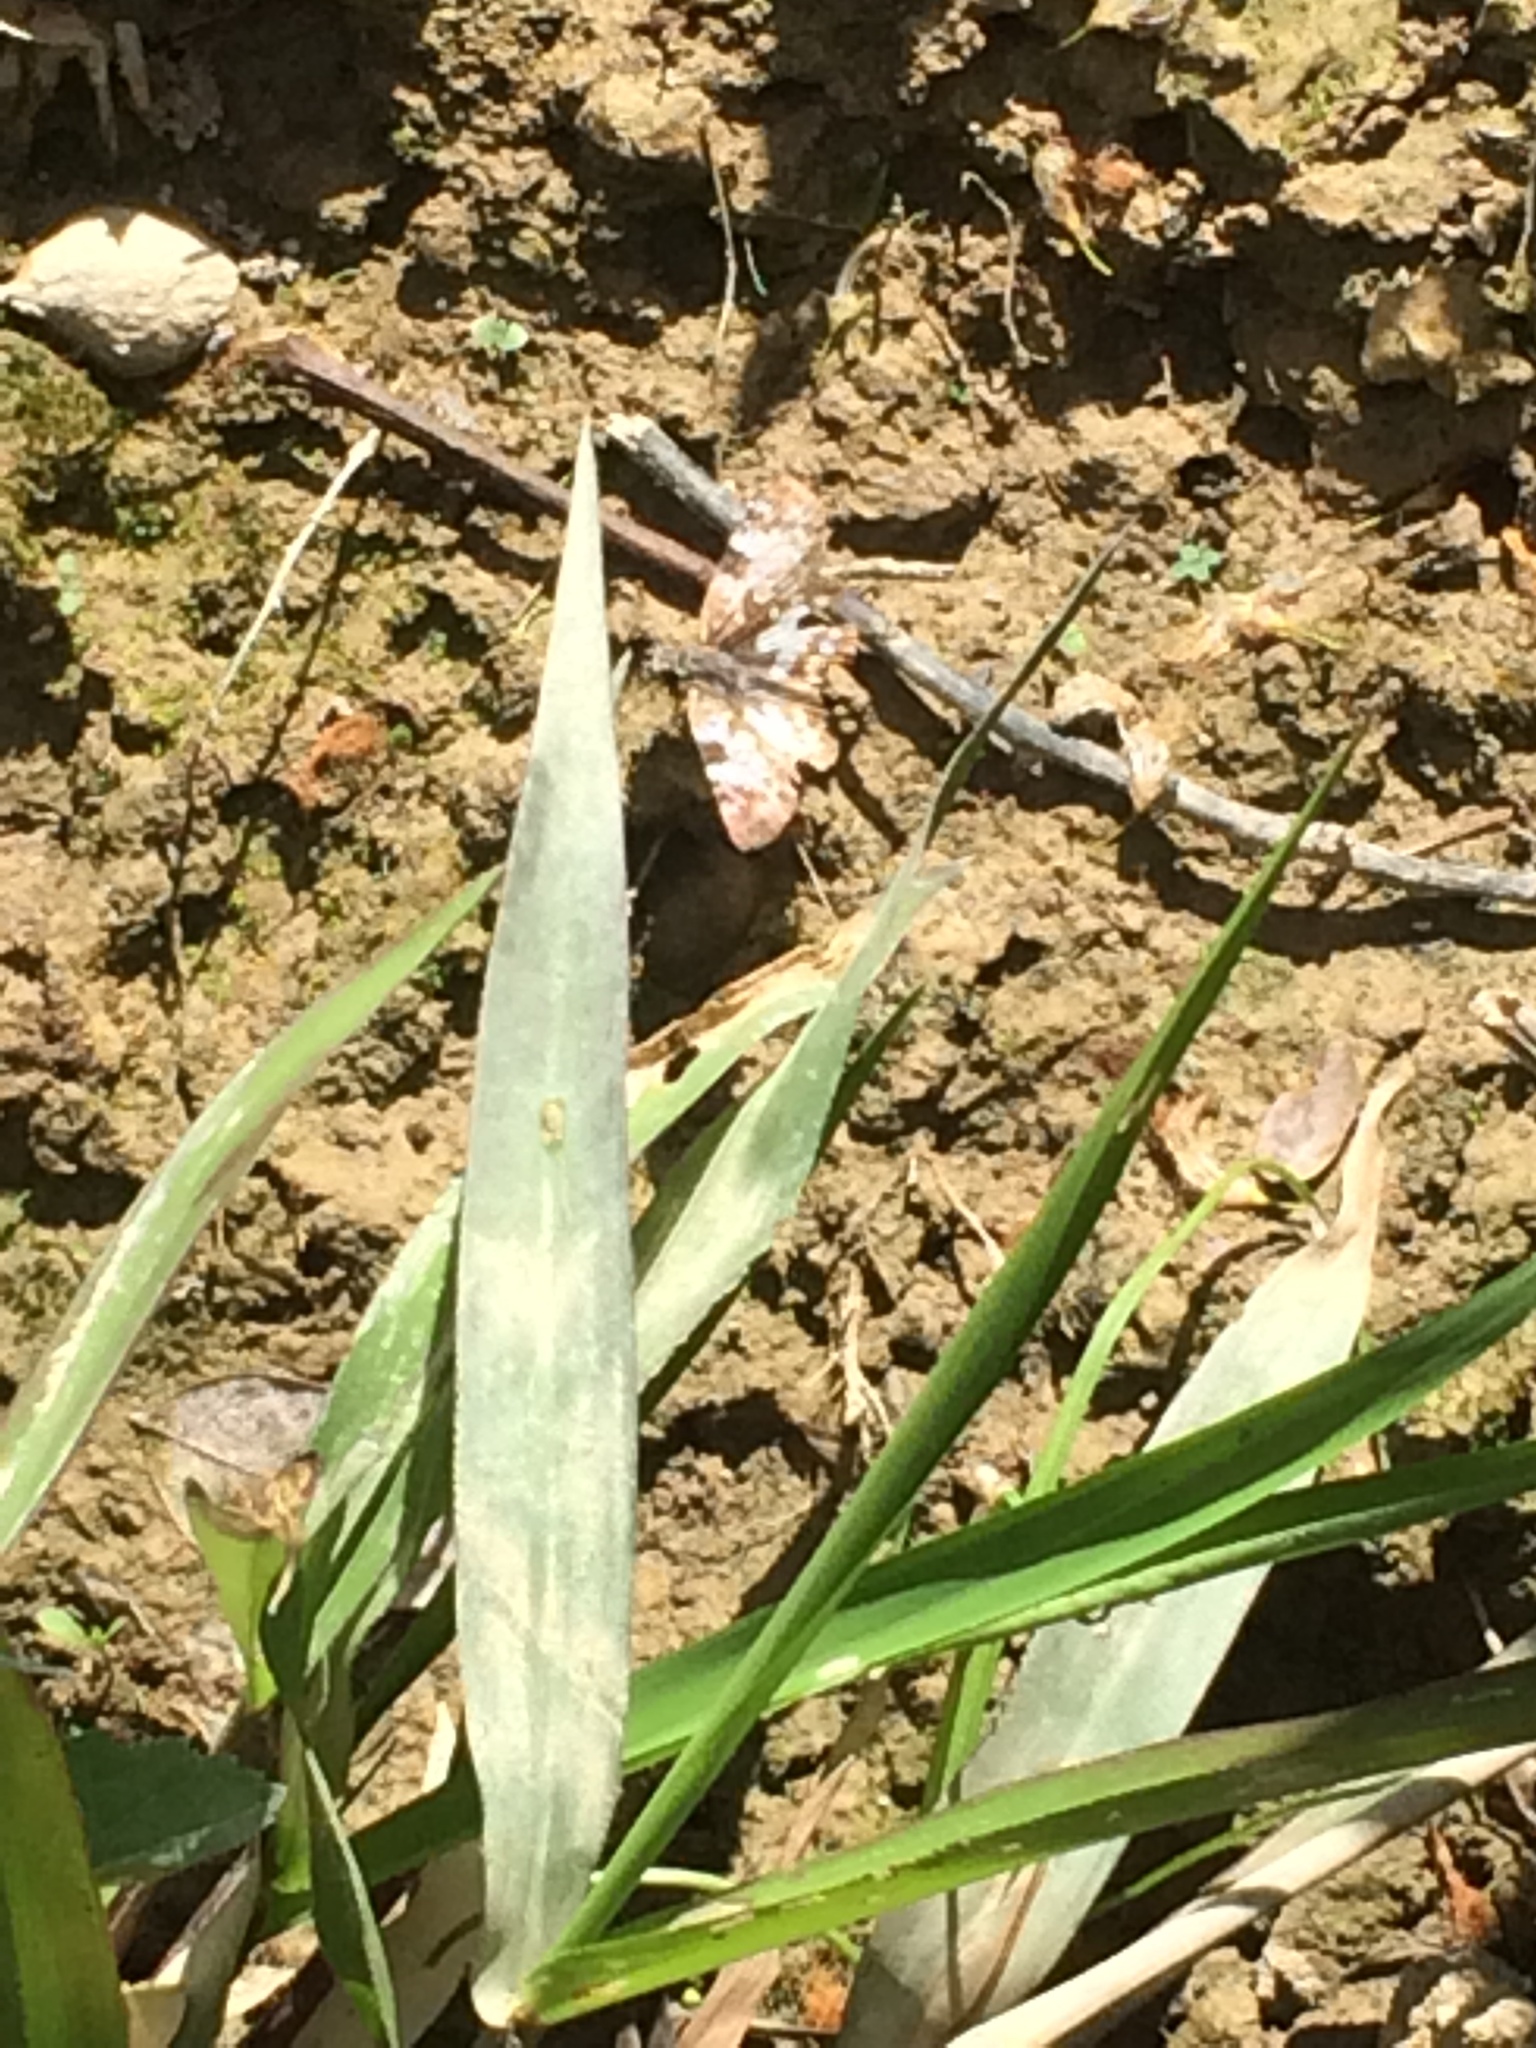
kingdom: Animalia
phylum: Arthropoda
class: Insecta
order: Lepidoptera
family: Hesperiidae
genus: Chiomara
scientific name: Chiomara asychis
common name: White-patterned skipper
